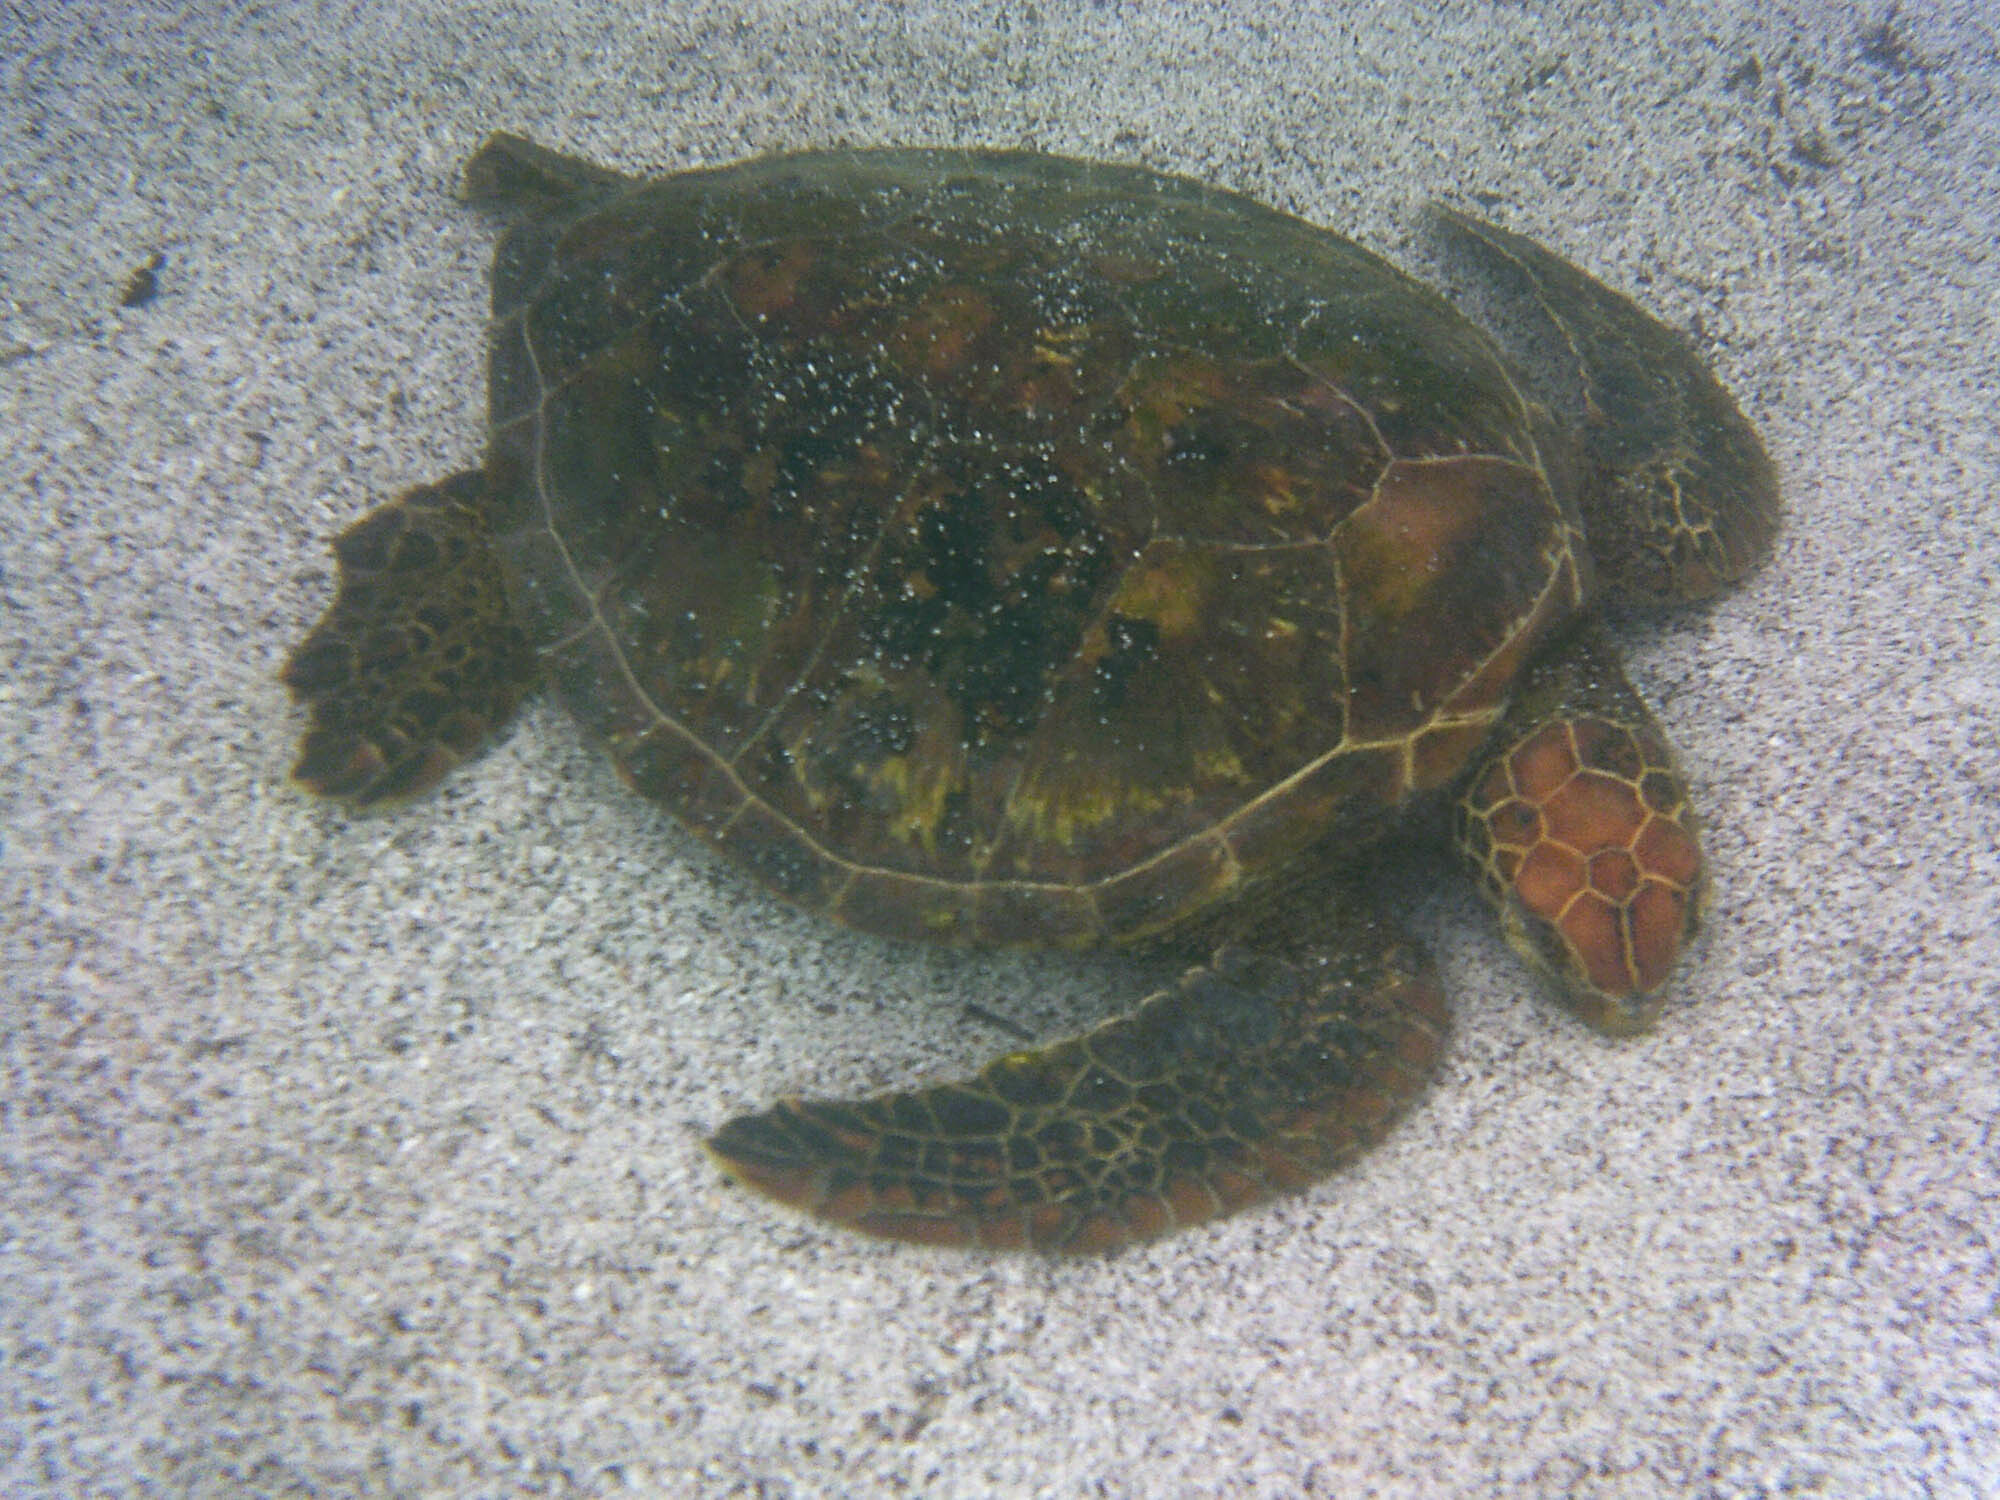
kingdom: Animalia
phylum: Chordata
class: Testudines
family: Cheloniidae
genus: Chelonia
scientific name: Chelonia mydas
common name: Green turtle
